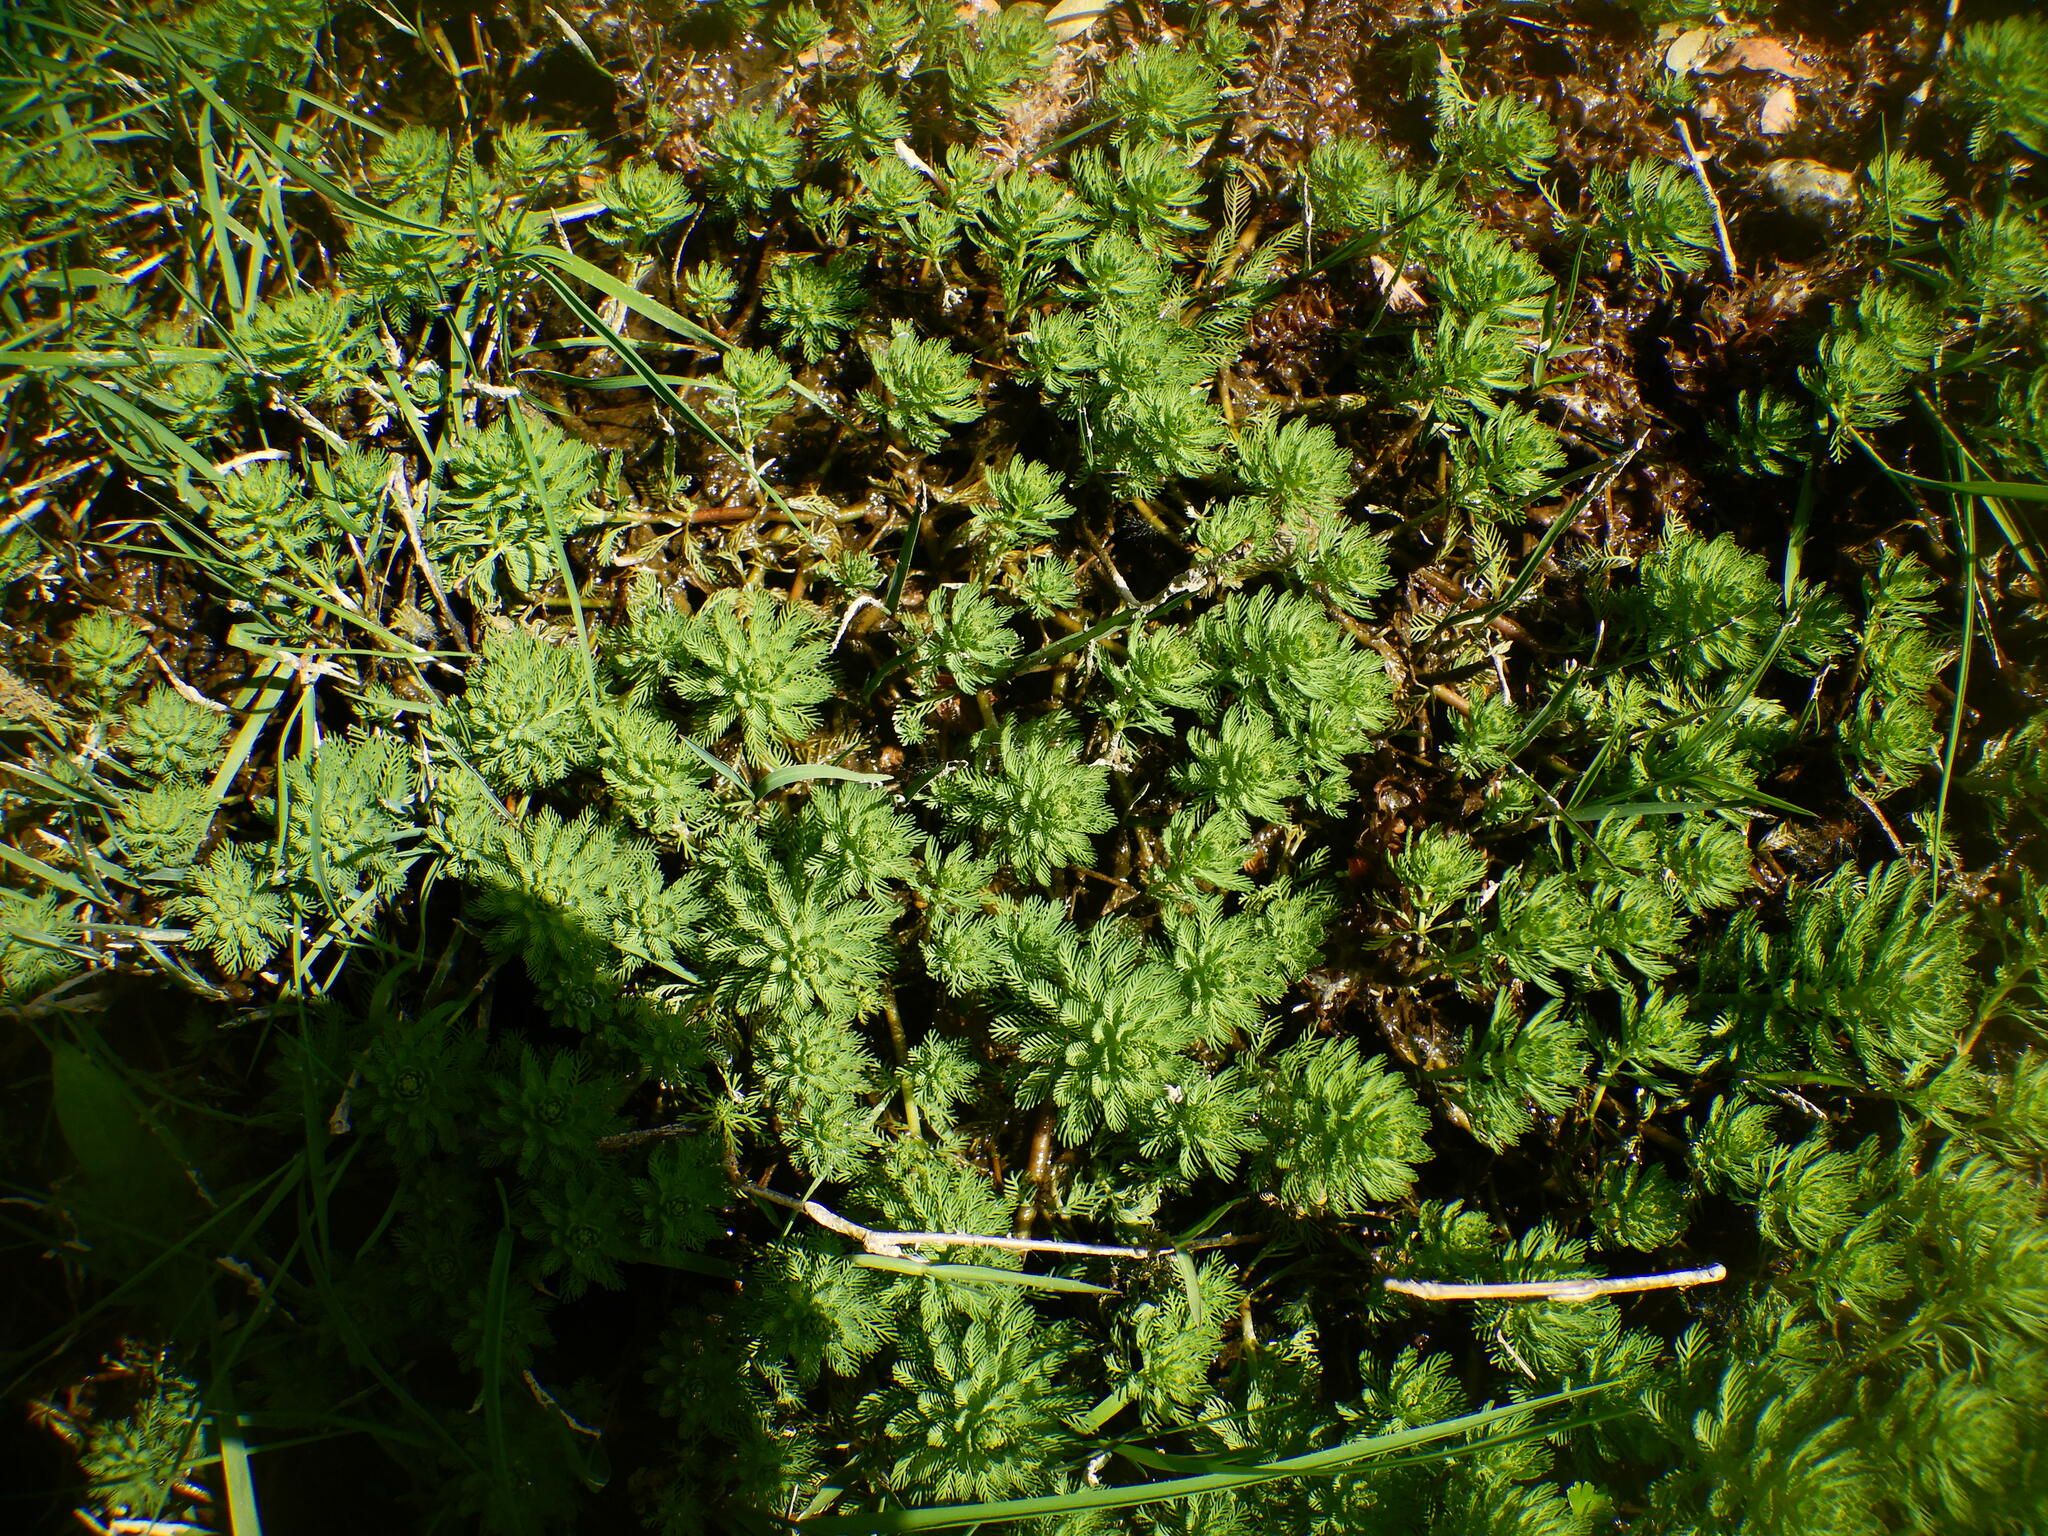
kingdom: Plantae
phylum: Tracheophyta
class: Magnoliopsida
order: Saxifragales
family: Haloragaceae
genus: Myriophyllum
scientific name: Myriophyllum aquaticum
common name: Parrot's feather
